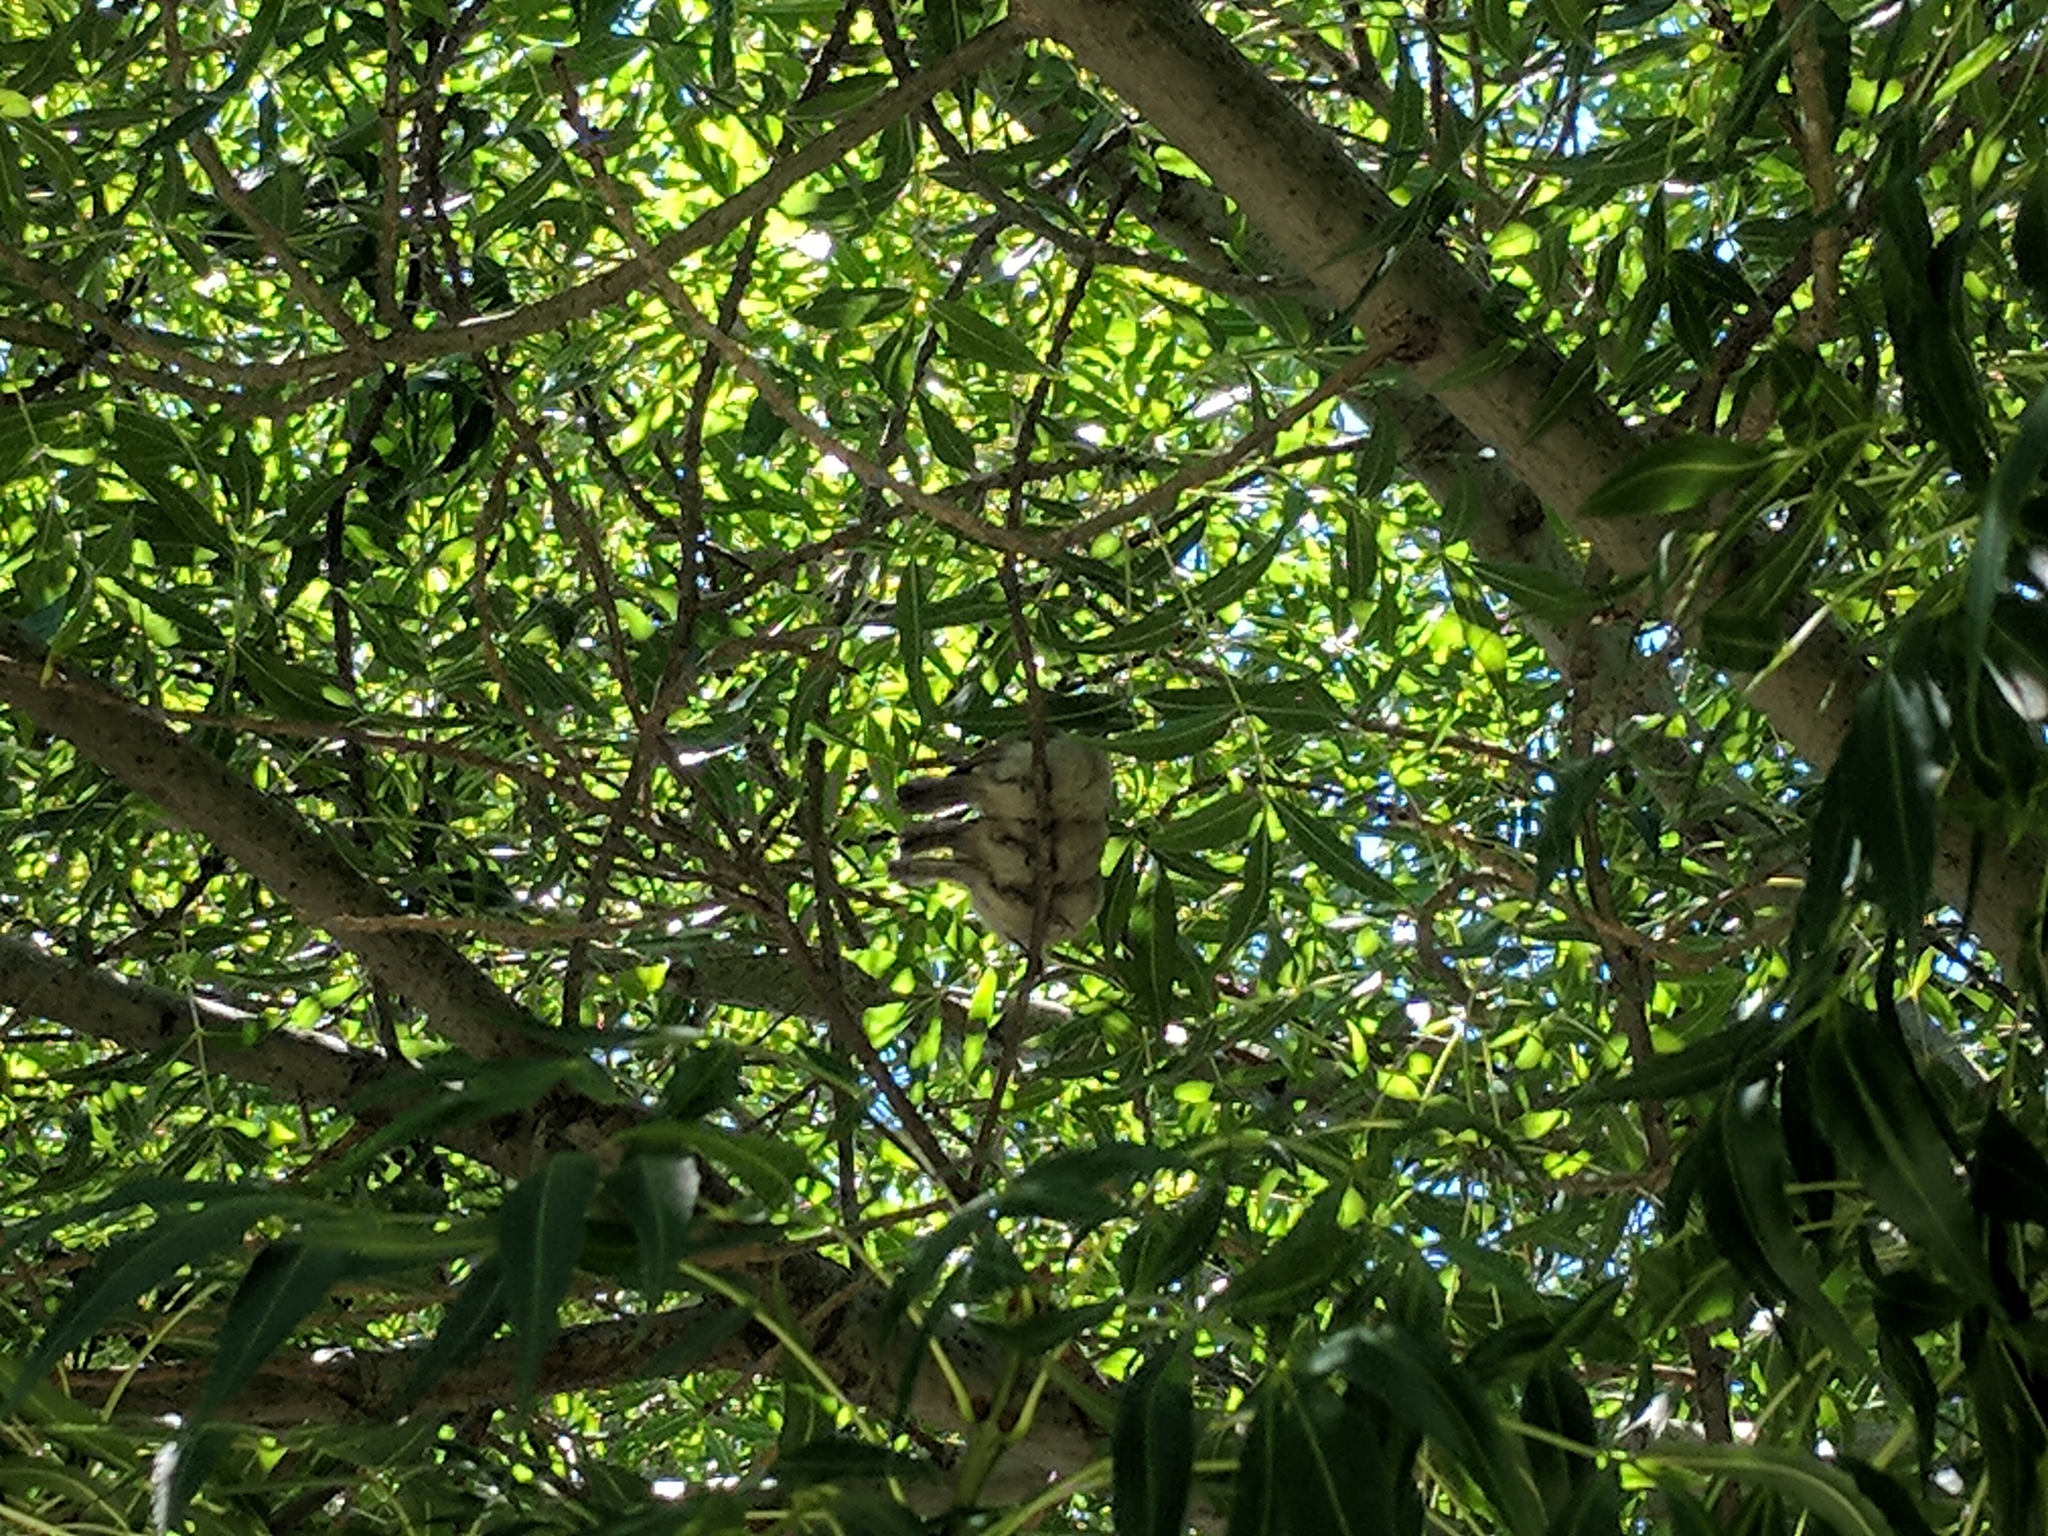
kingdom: Animalia
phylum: Chordata
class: Aves
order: Passeriformes
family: Aegithalidae
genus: Psaltriparus
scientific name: Psaltriparus minimus
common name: American bushtit
